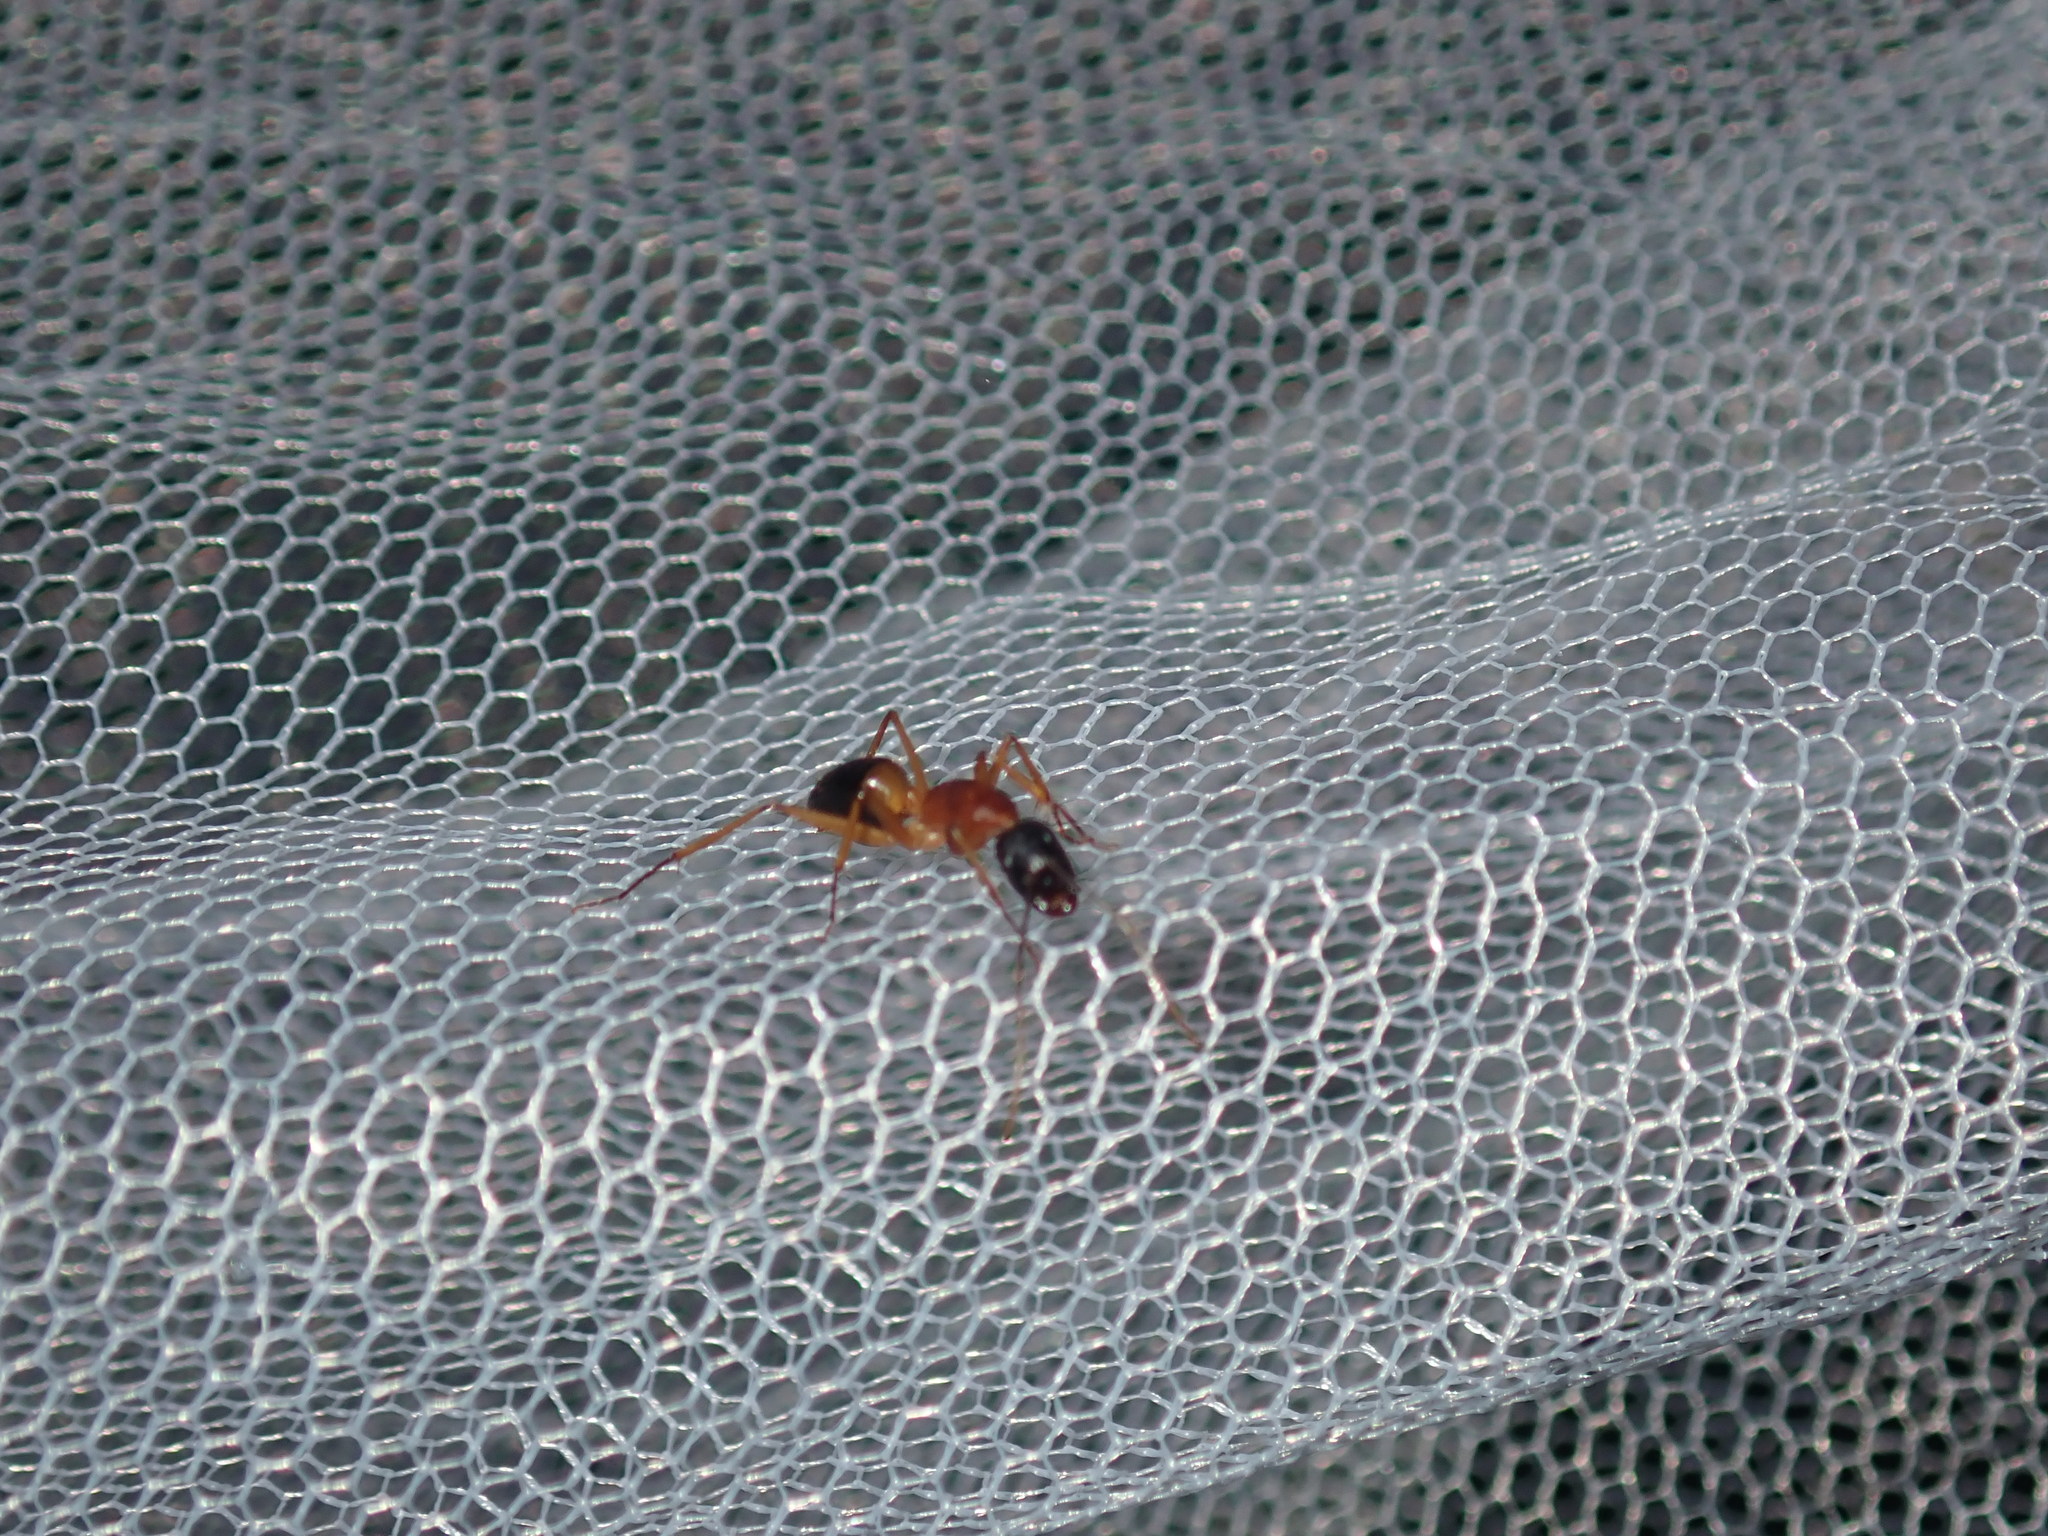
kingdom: Animalia
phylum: Arthropoda
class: Insecta
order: Hymenoptera
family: Formicidae
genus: Camponotus
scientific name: Camponotus consobrinus
